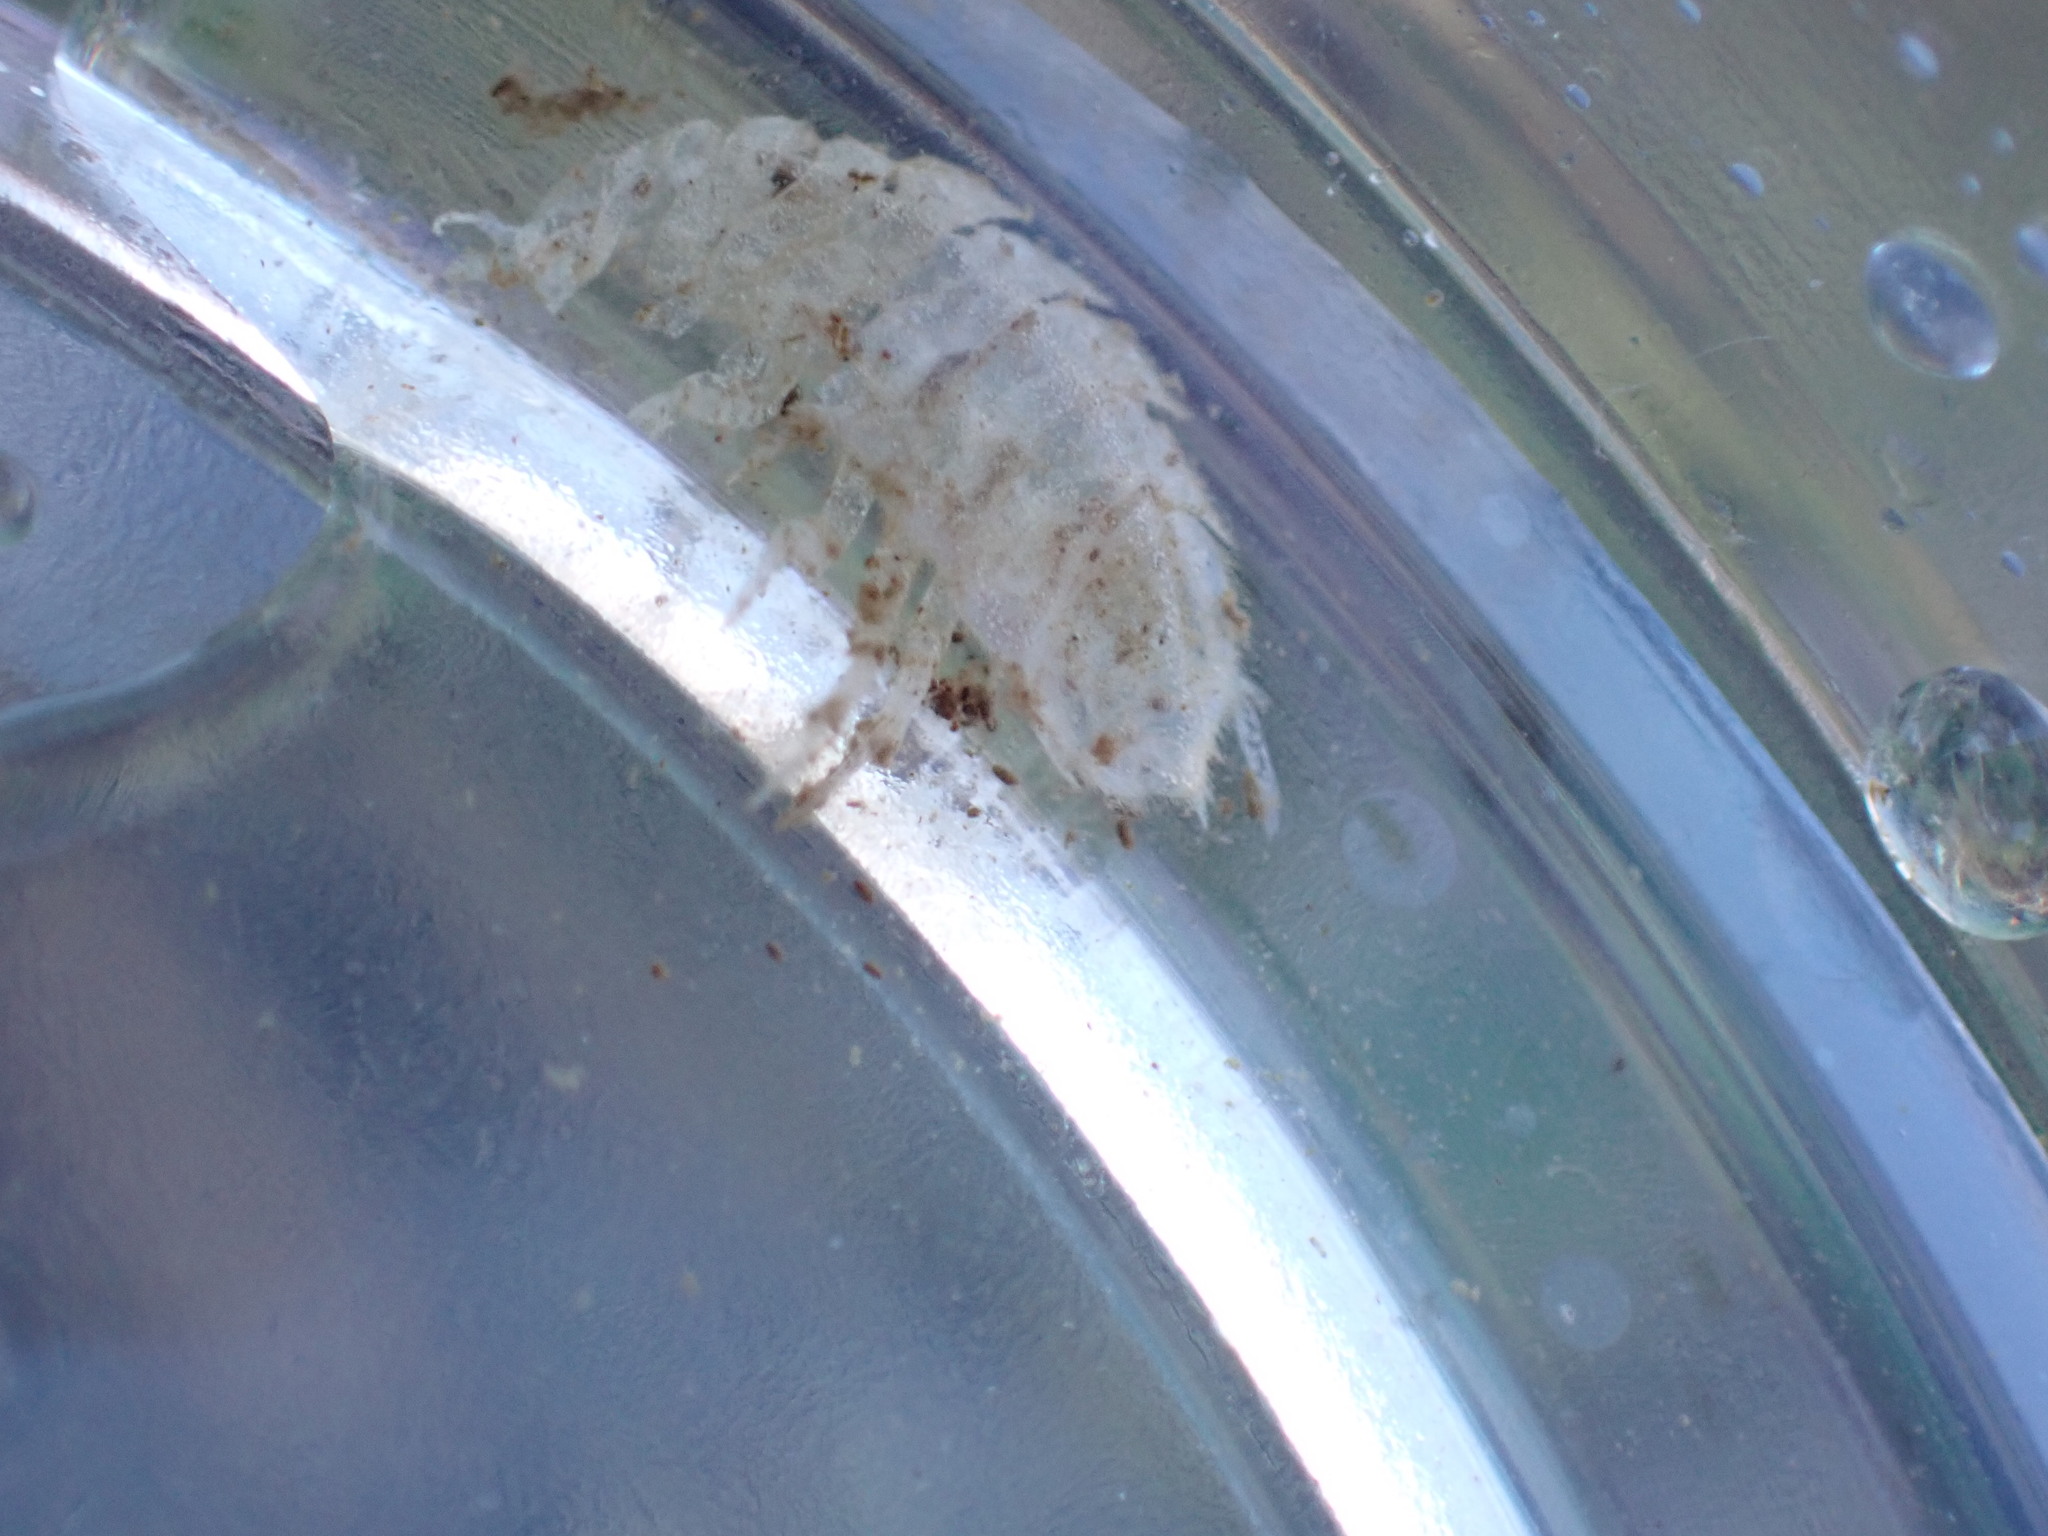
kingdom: Animalia
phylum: Arthropoda
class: Malacostraca
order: Isopoda
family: Asellidae
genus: Lirceus
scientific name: Lirceus brachyurus
